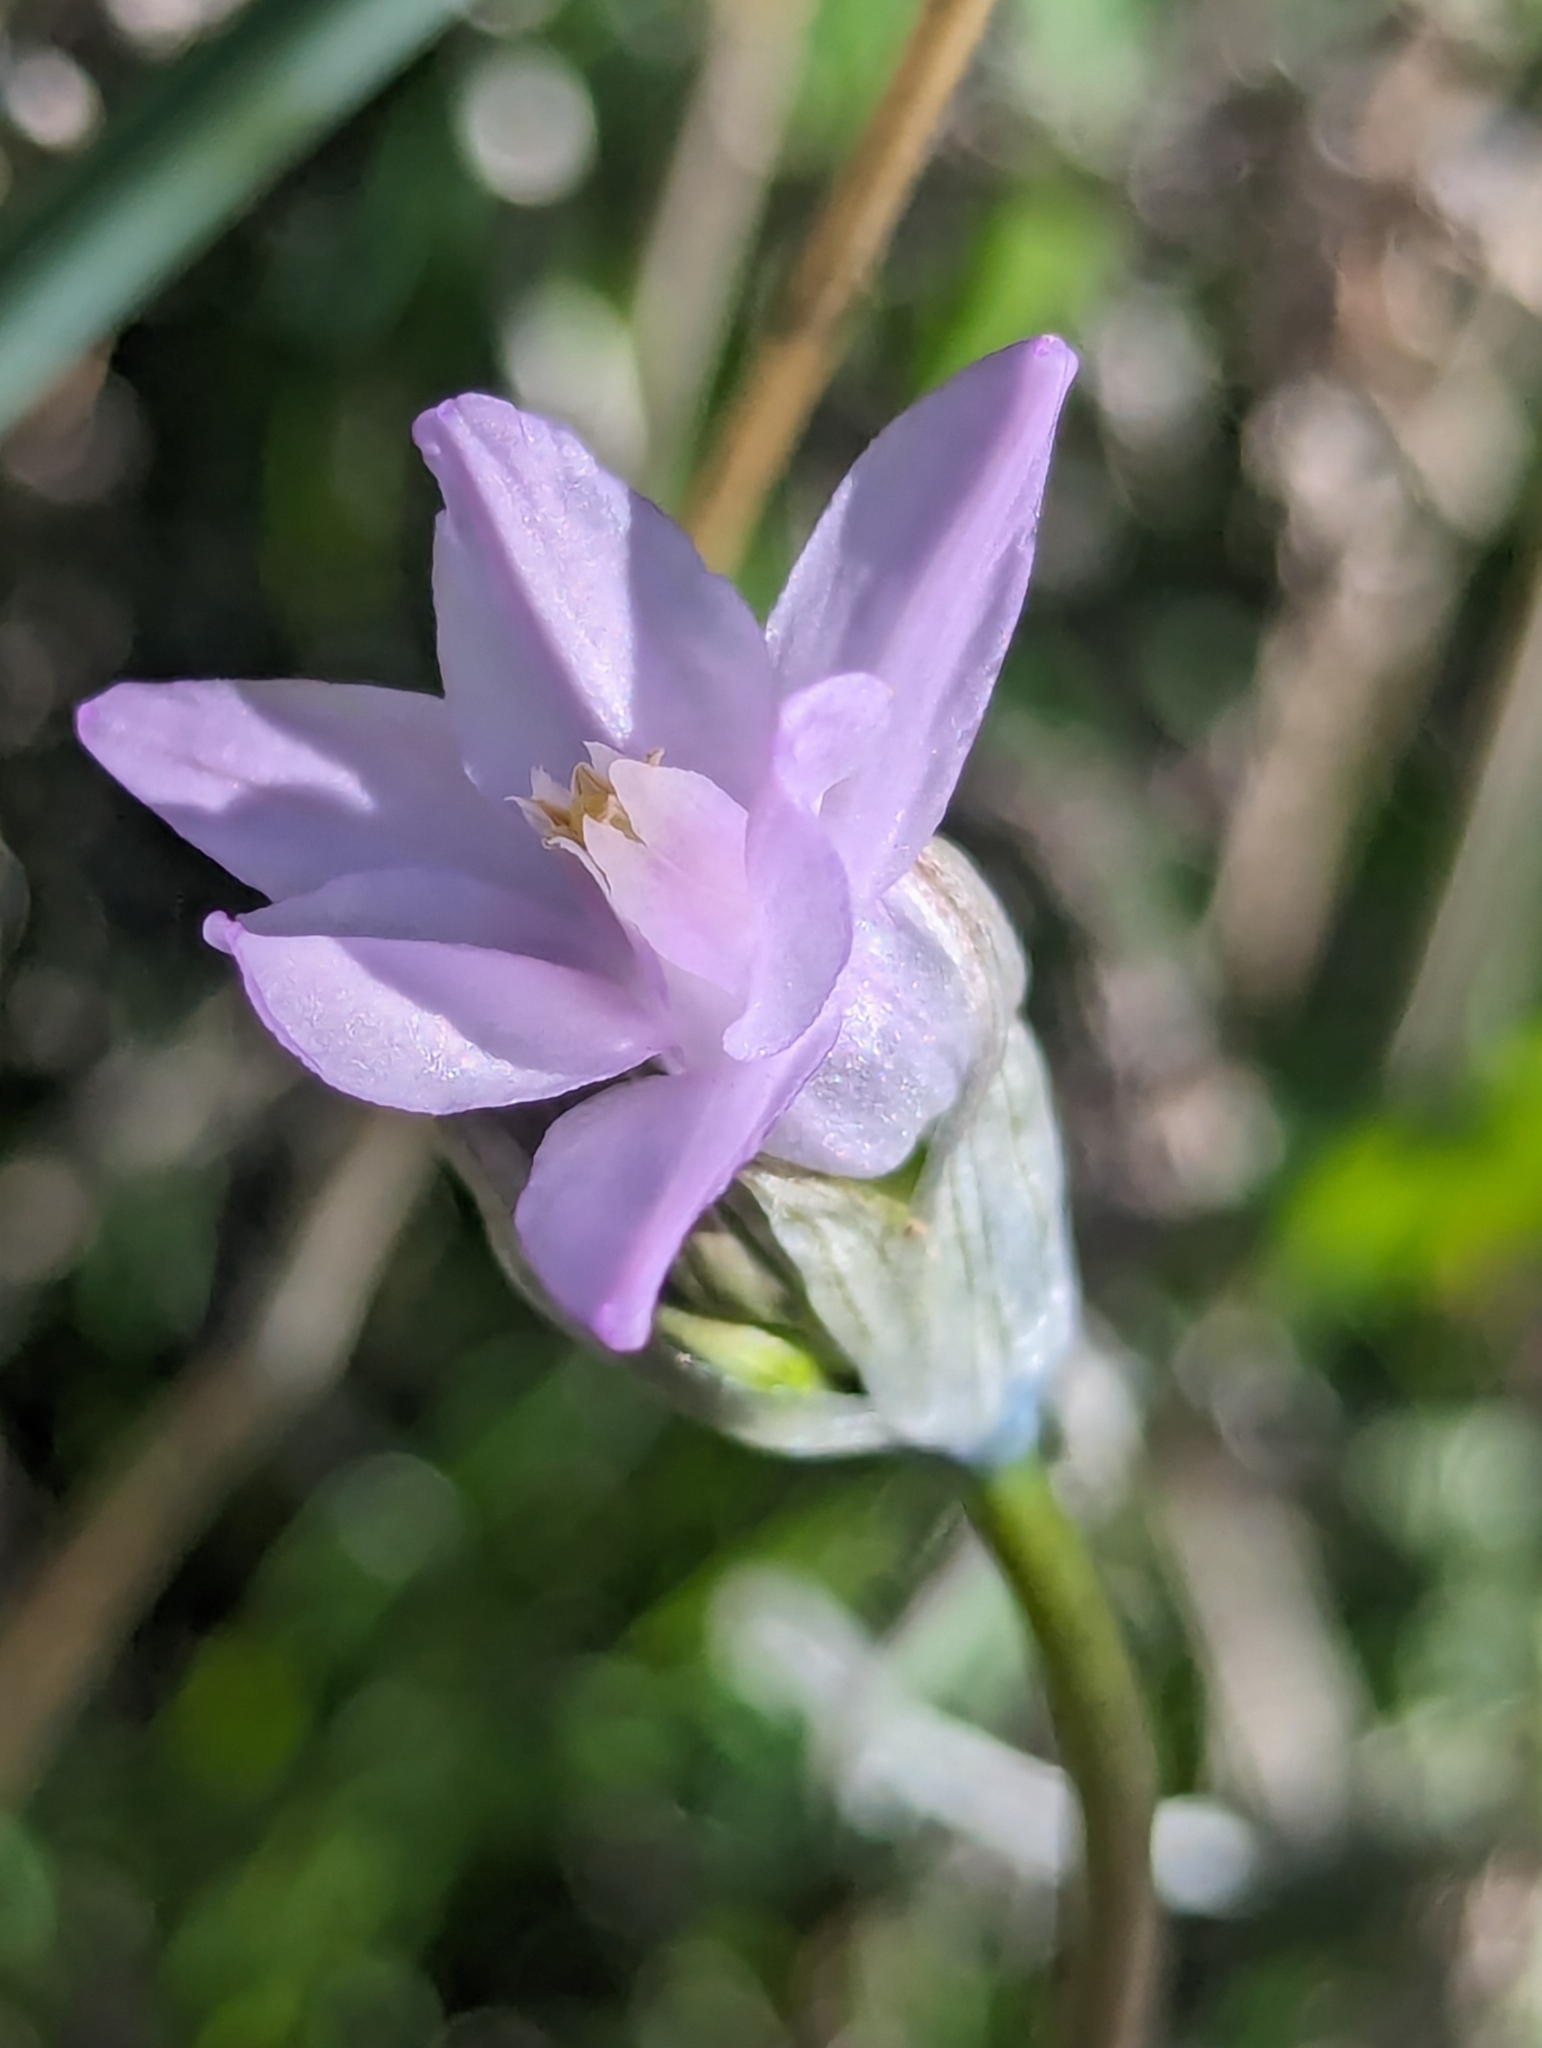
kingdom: Plantae
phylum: Tracheophyta
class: Liliopsida
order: Asparagales
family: Asparagaceae
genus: Dipterostemon
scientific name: Dipterostemon capitatus
